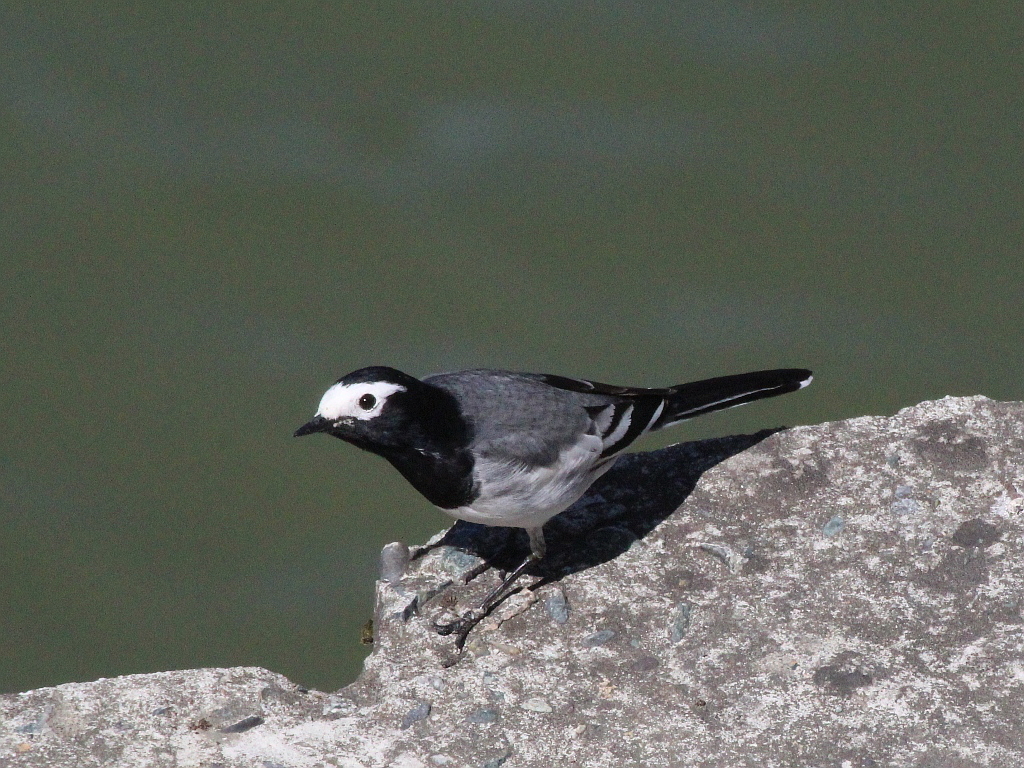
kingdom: Animalia
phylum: Chordata
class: Aves
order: Passeriformes
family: Motacillidae
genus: Motacilla
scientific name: Motacilla alba
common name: White wagtail
